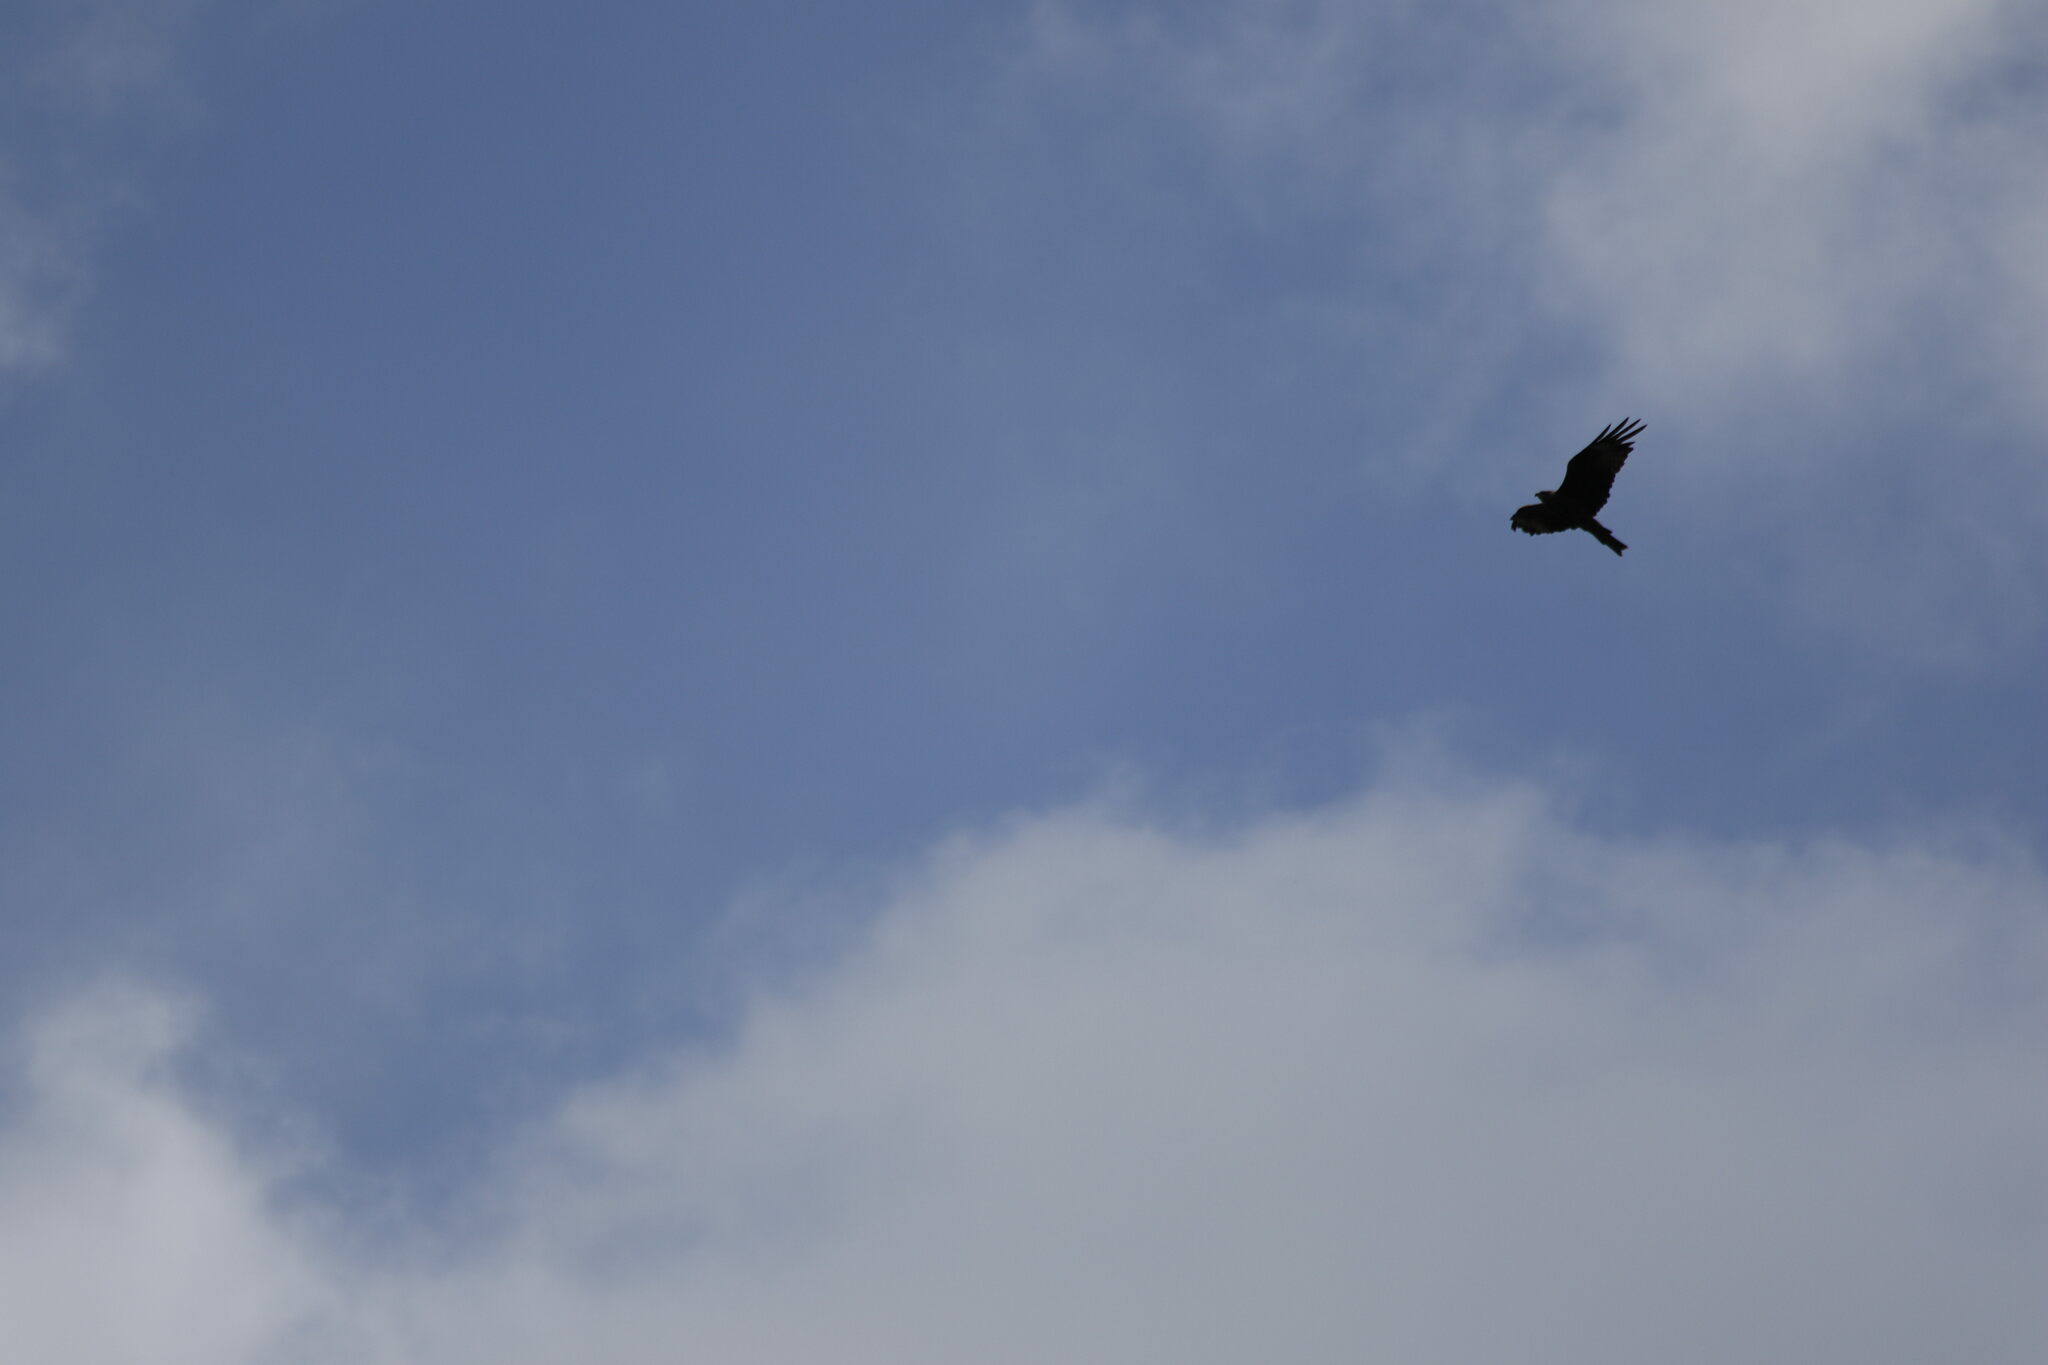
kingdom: Animalia
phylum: Chordata
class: Aves
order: Accipitriformes
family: Accipitridae
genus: Milvus
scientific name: Milvus migrans
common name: Black kite
